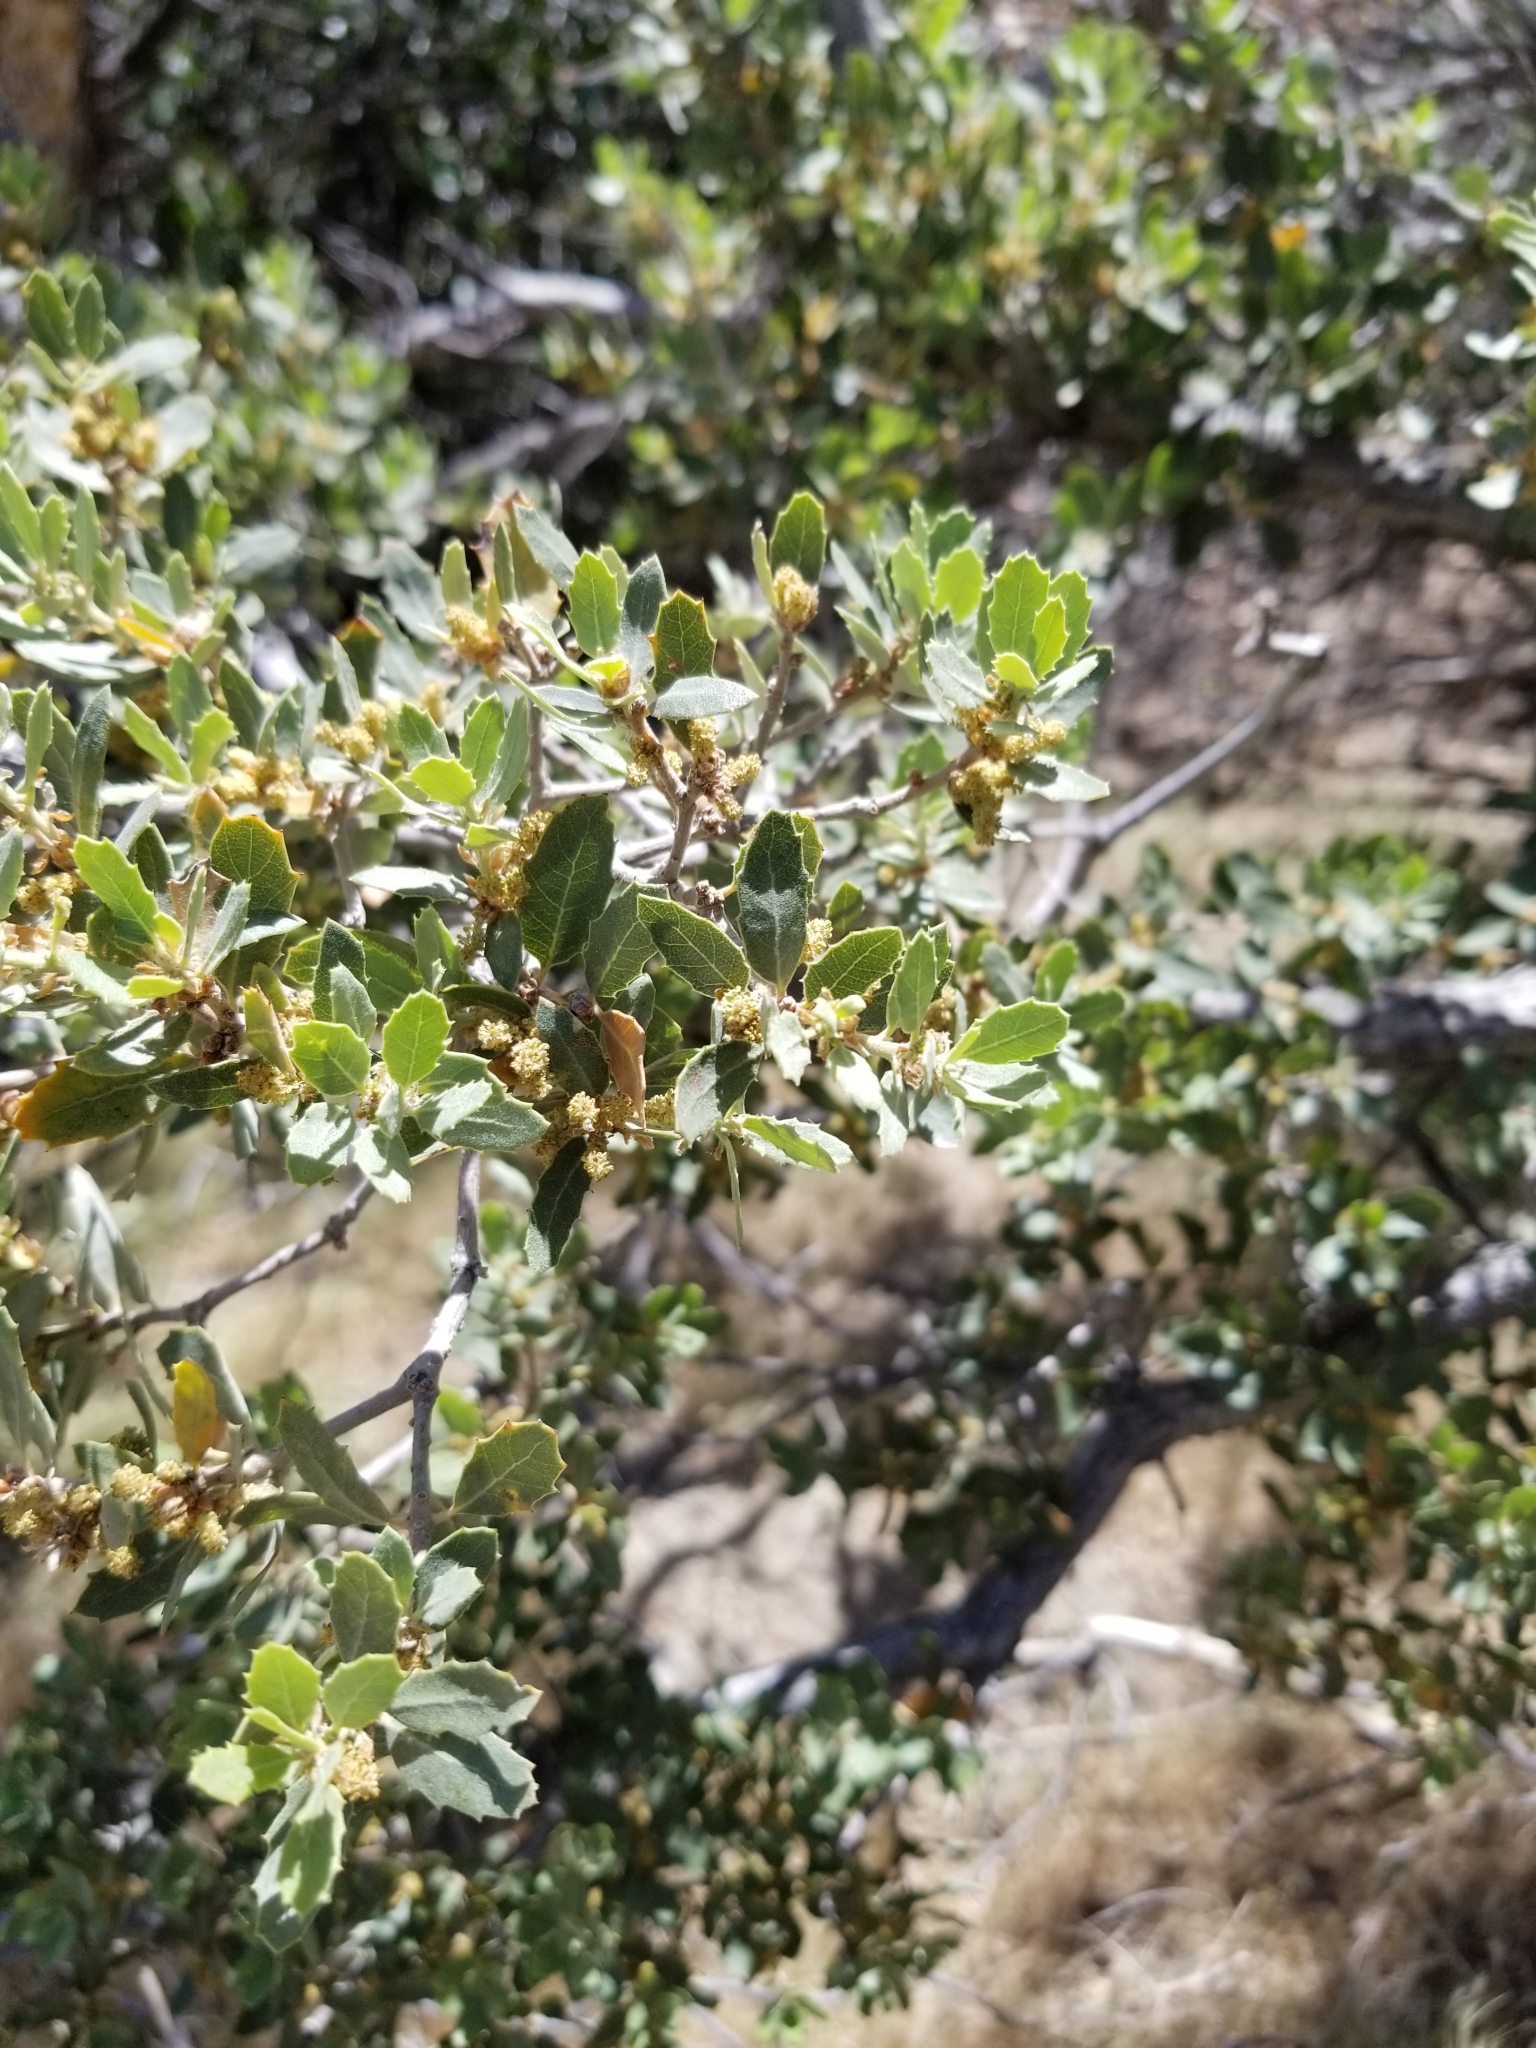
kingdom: Plantae
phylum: Tracheophyta
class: Magnoliopsida
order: Fagales
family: Fagaceae
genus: Quercus
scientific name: Quercus cornelius-mulleri
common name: Muller oak
